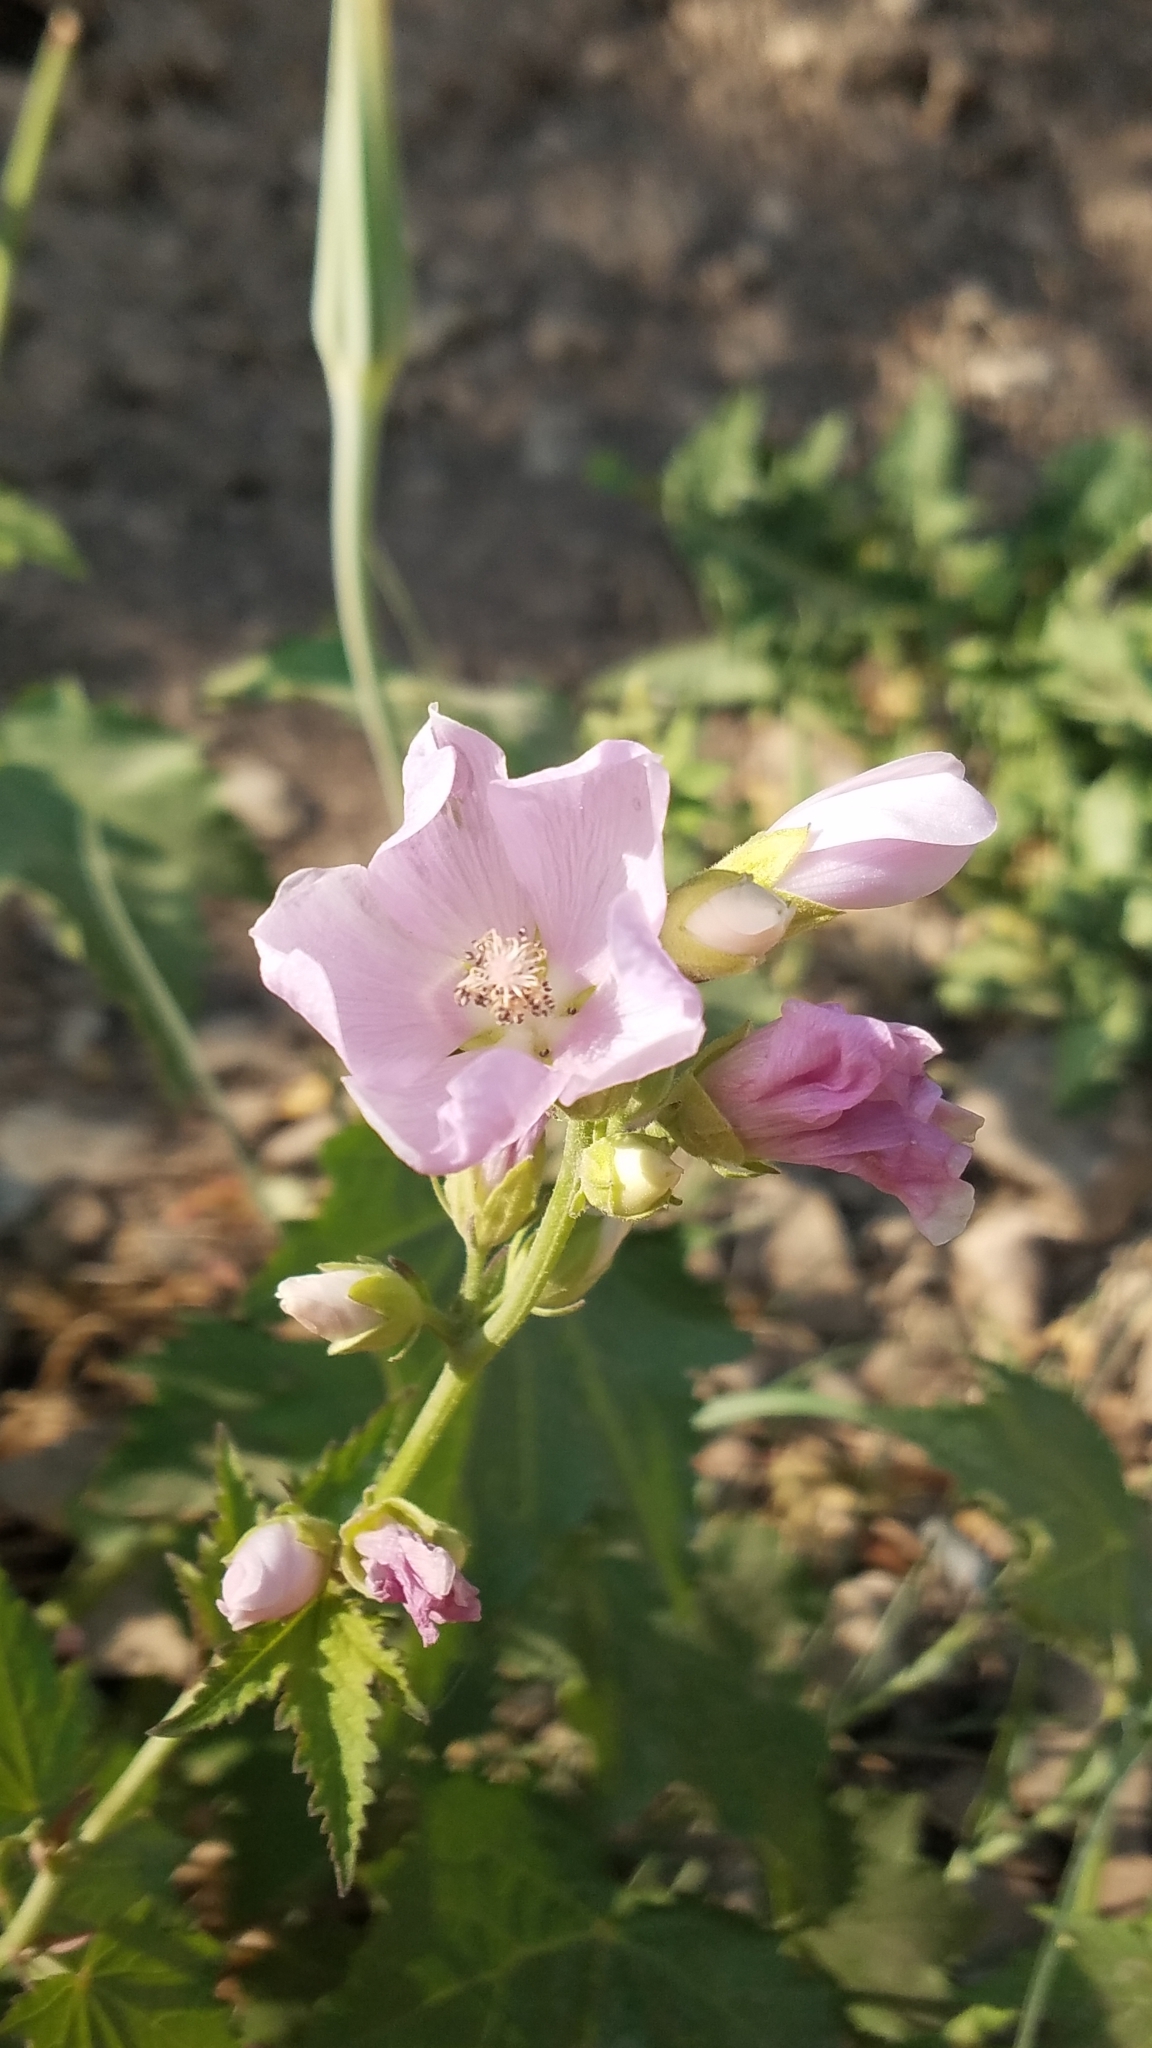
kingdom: Plantae
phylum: Tracheophyta
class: Magnoliopsida
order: Malvales
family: Malvaceae
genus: Iliamna
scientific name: Iliamna rivularis
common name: Wild hollyhock
